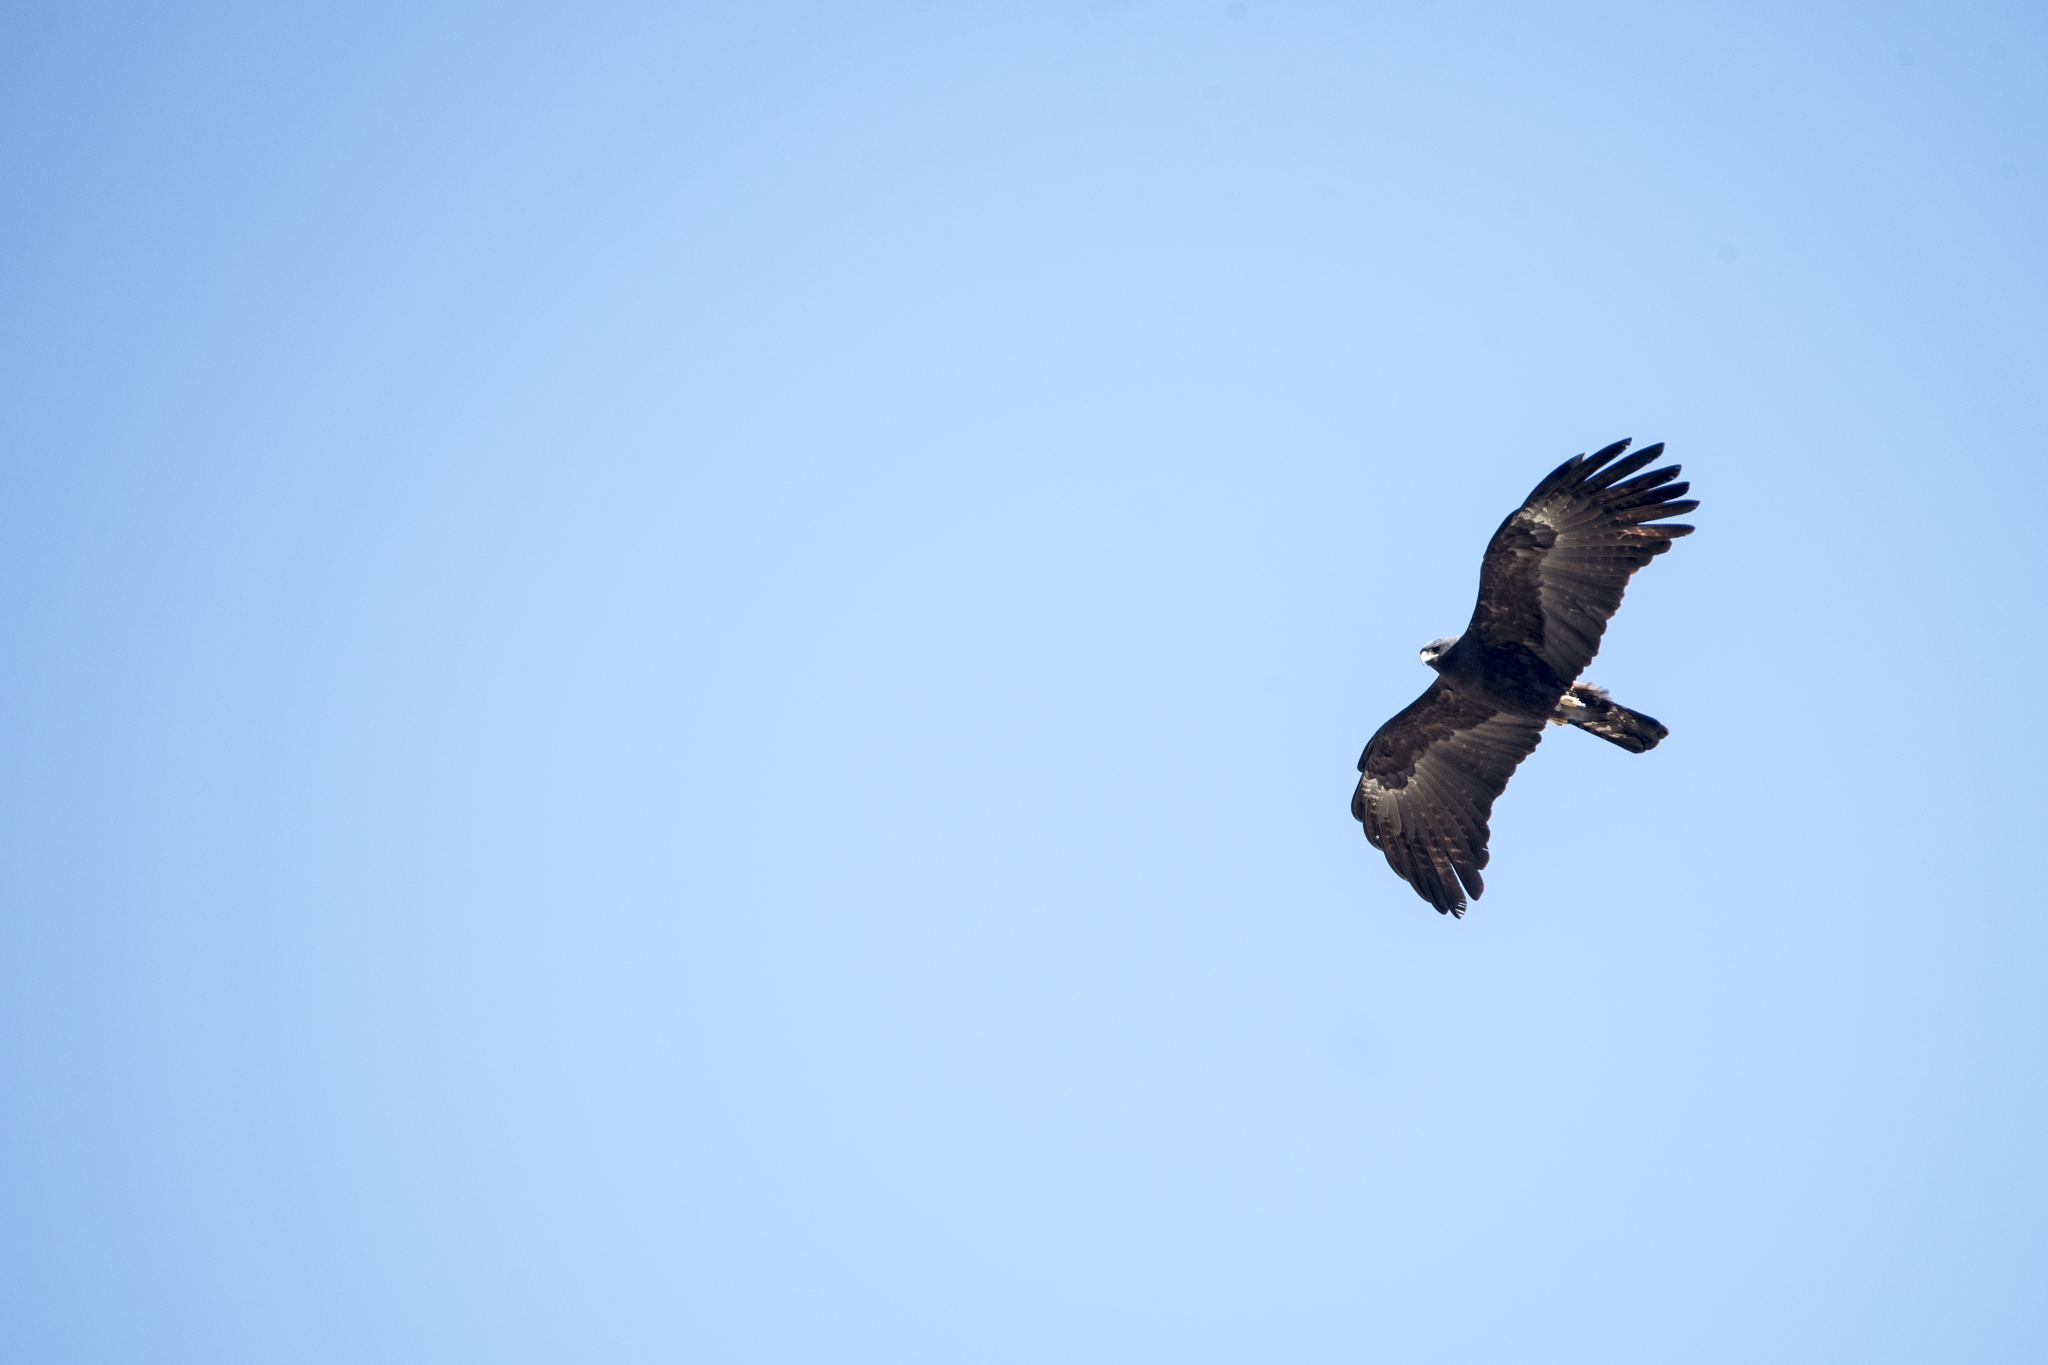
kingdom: Animalia
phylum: Chordata
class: Aves
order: Accipitriformes
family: Accipitridae
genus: Ictinaetus
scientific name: Ictinaetus malayensis
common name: Black eagle
